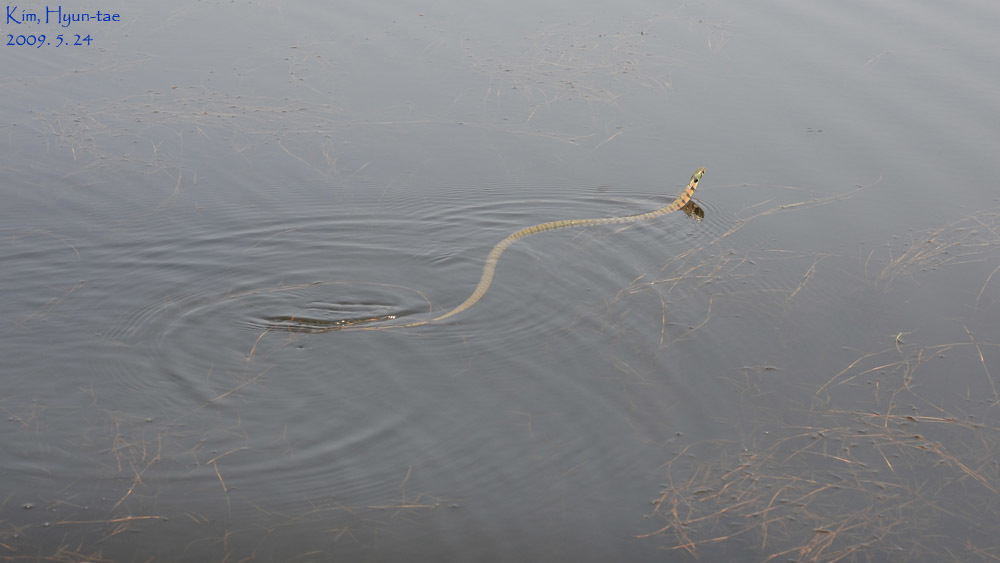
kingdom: Animalia
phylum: Chordata
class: Squamata
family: Colubridae
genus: Rhabdophis
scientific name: Rhabdophis tigrinus
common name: Tiger keelback
